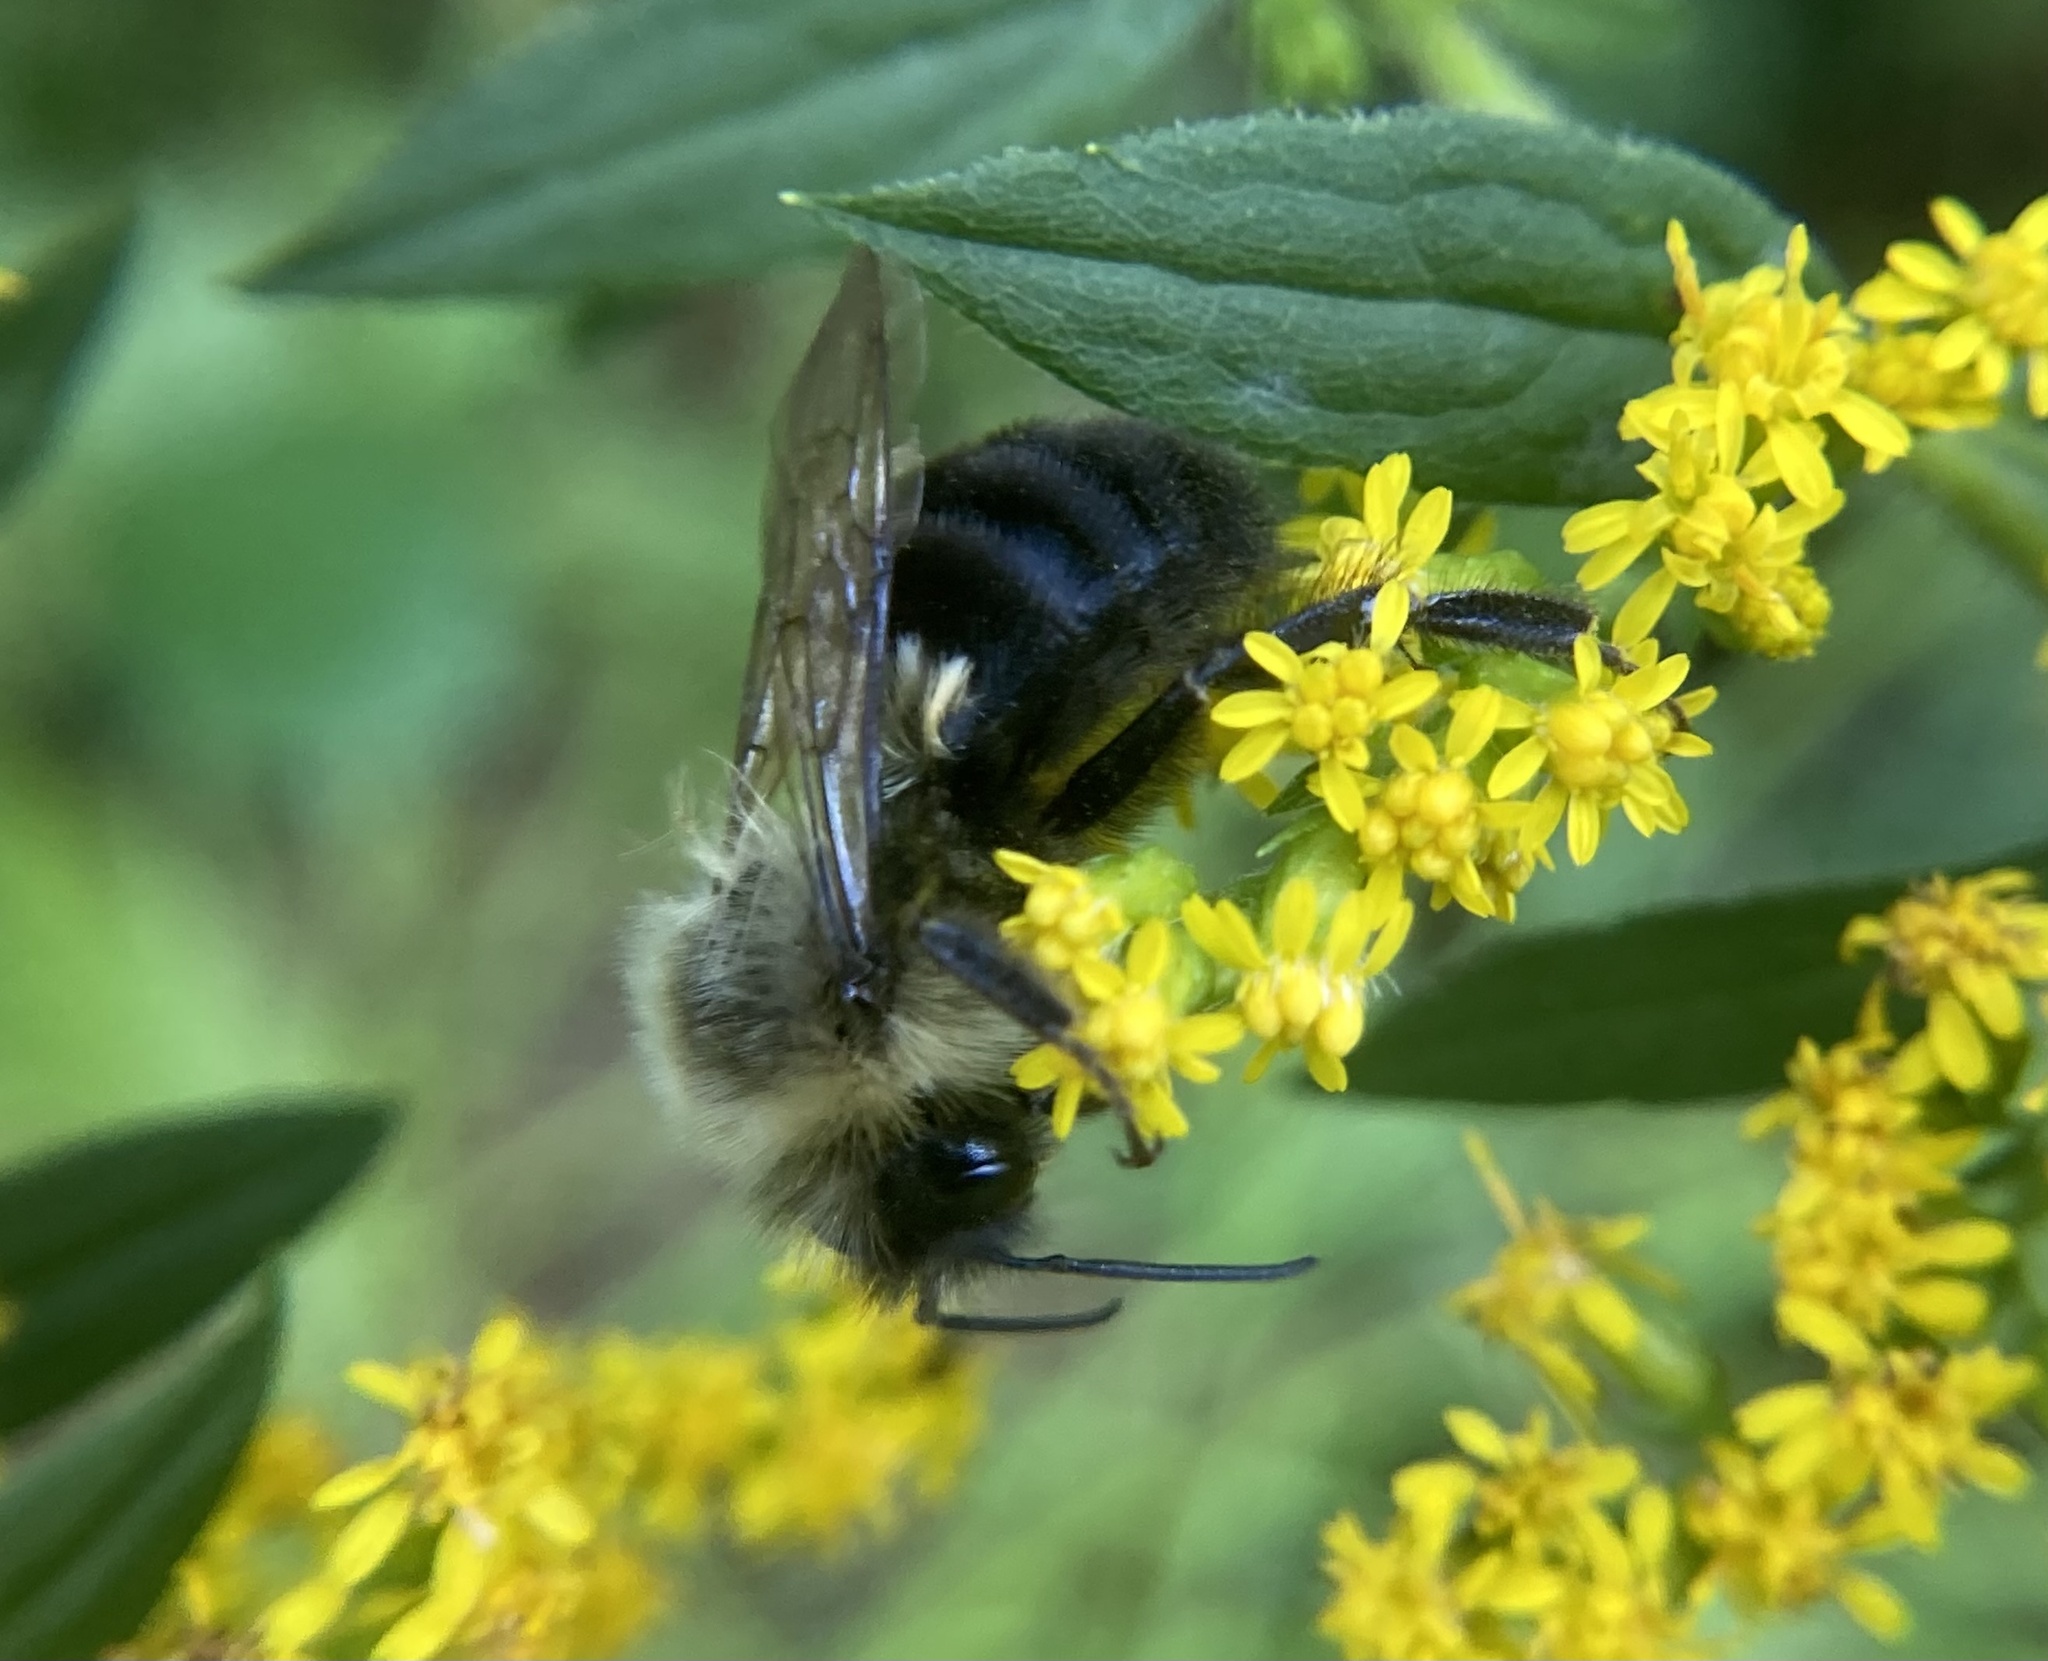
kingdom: Animalia
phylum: Arthropoda
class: Insecta
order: Hymenoptera
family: Apidae
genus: Bombus
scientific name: Bombus impatiens
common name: Common eastern bumble bee
